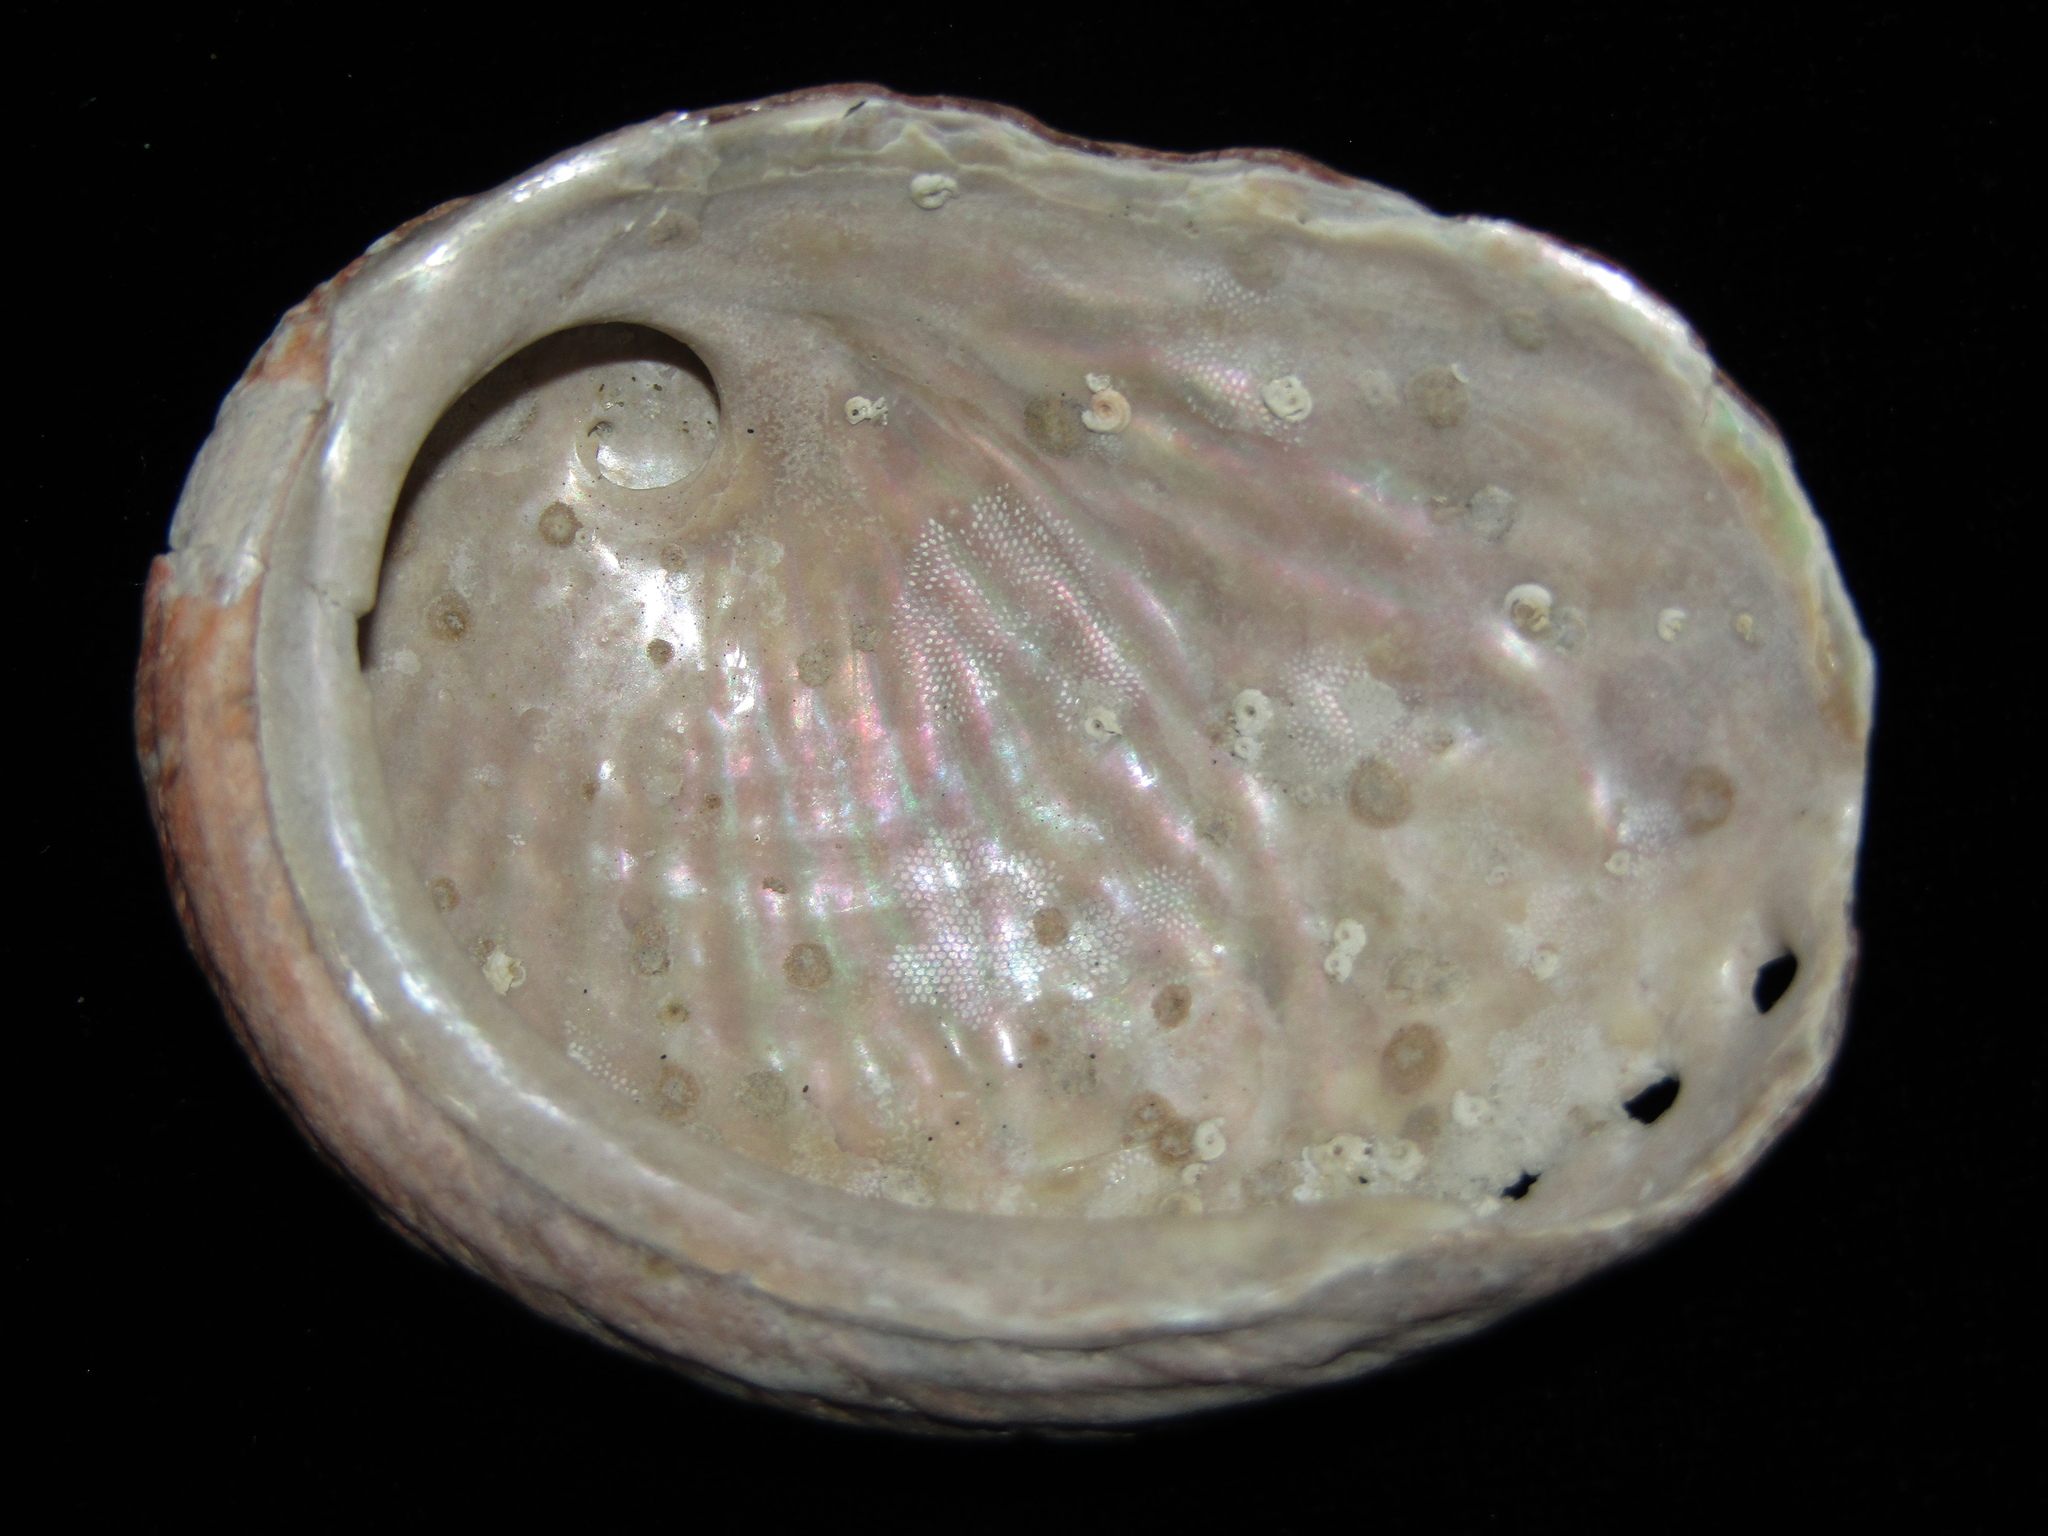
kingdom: Animalia
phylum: Mollusca
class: Gastropoda
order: Lepetellida
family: Haliotidae
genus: Haliotis
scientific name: Haliotis australis
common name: Silver abalone
